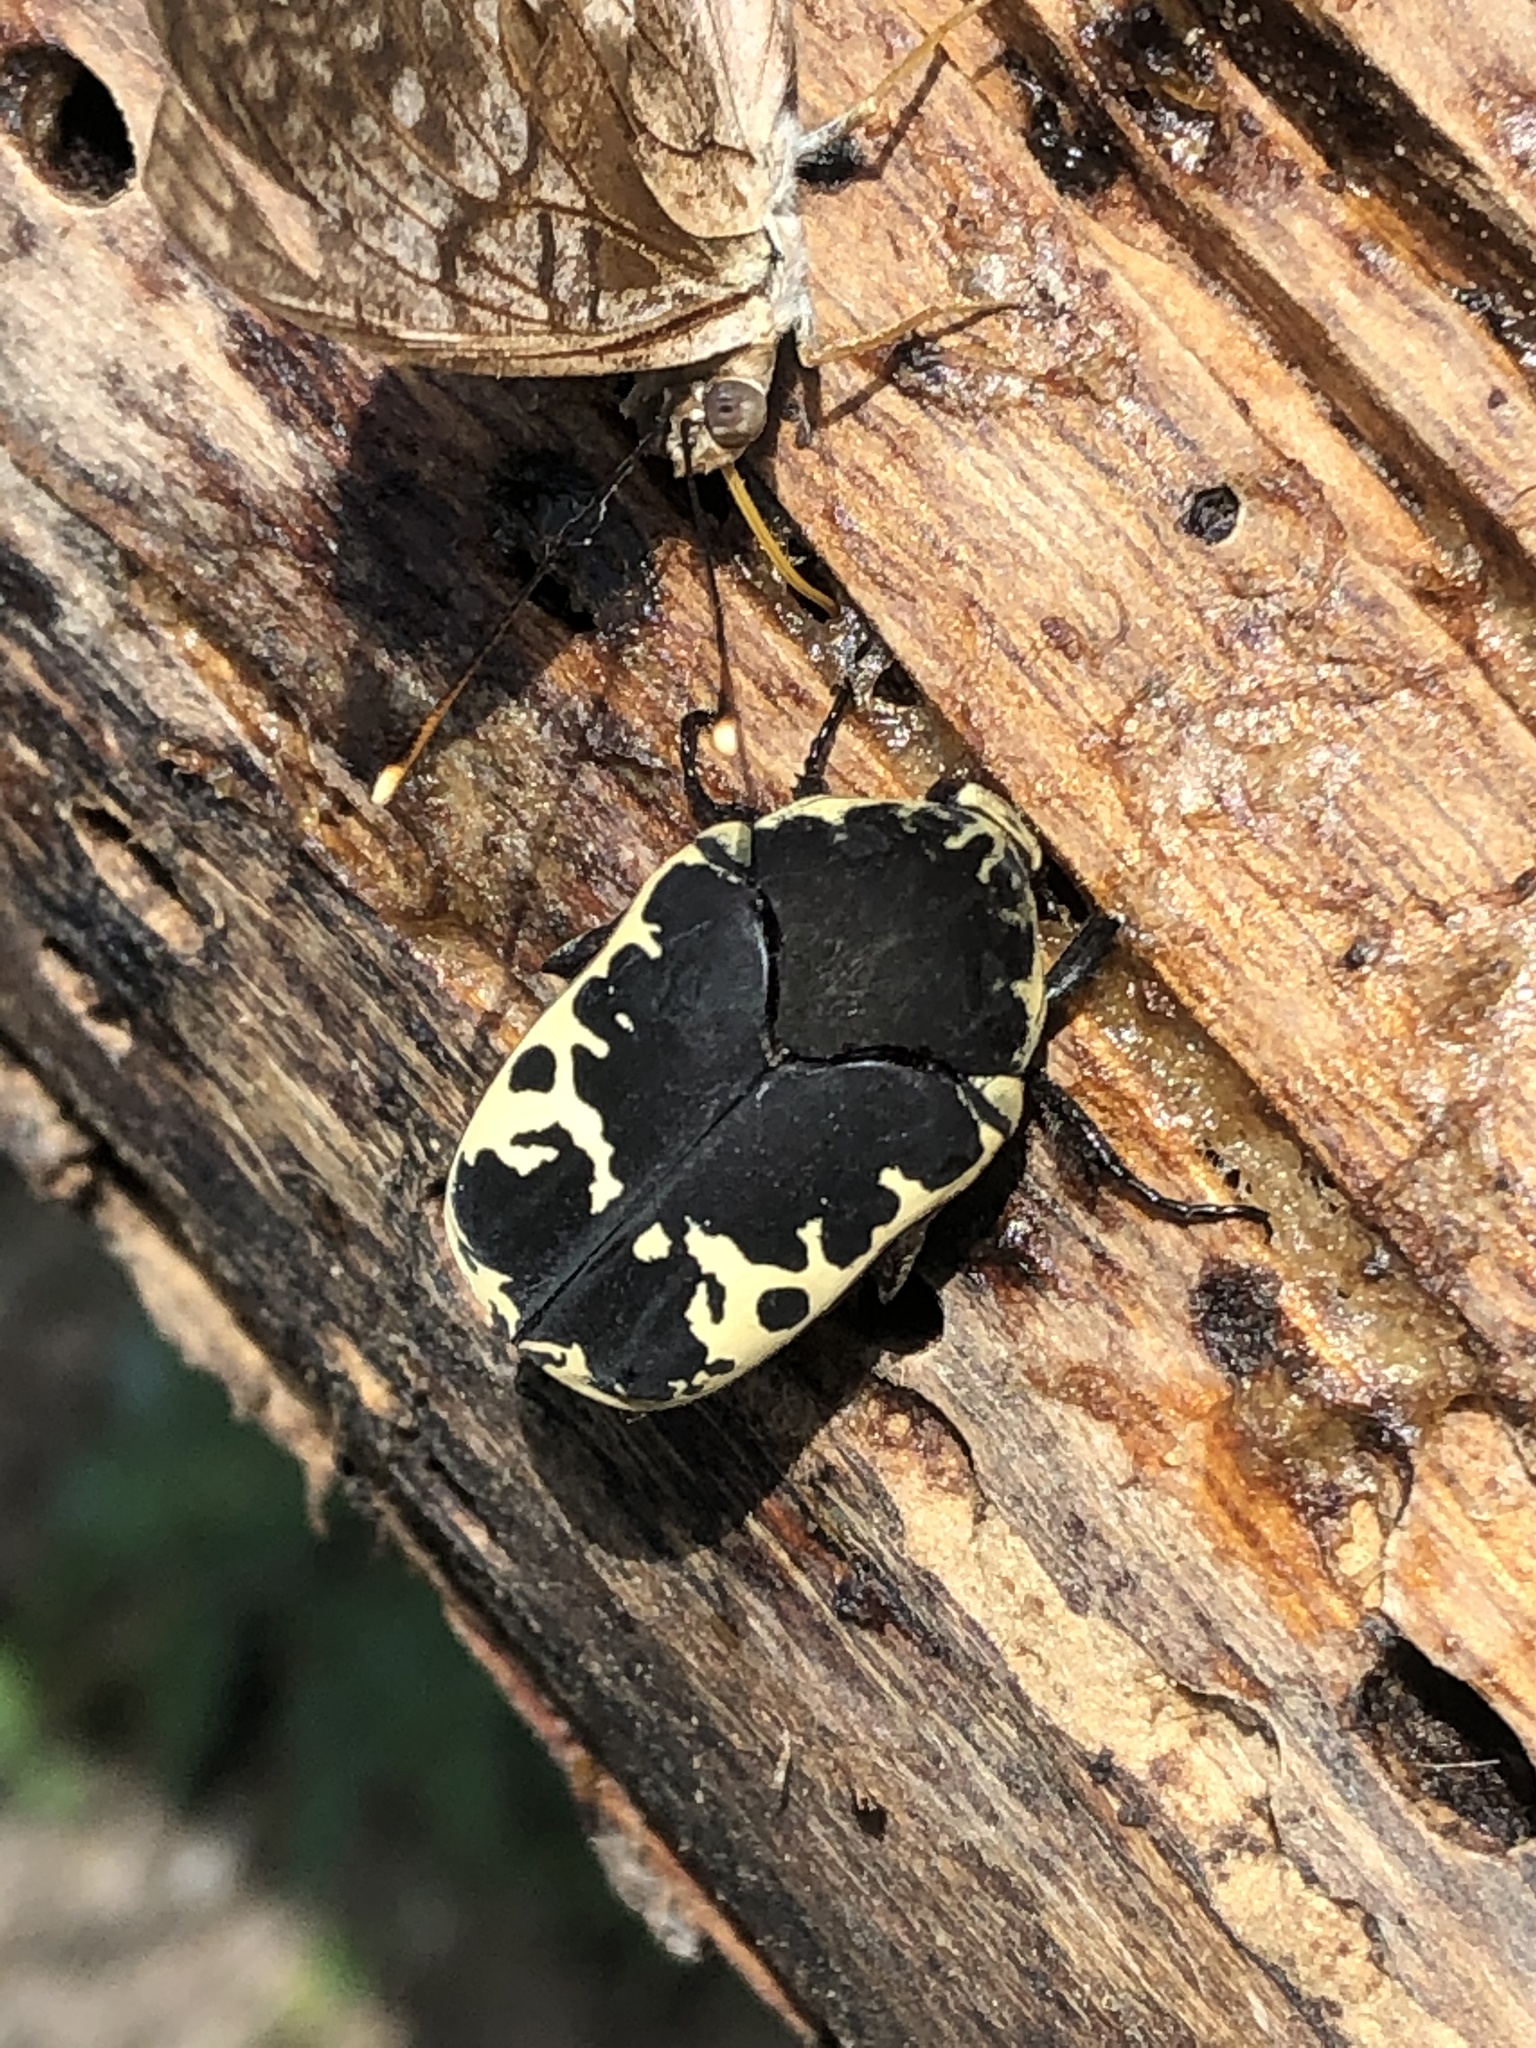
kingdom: Animalia
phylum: Arthropoda
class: Insecta
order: Coleoptera
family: Scarabaeidae
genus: Gymnetis
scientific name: Gymnetis thula
